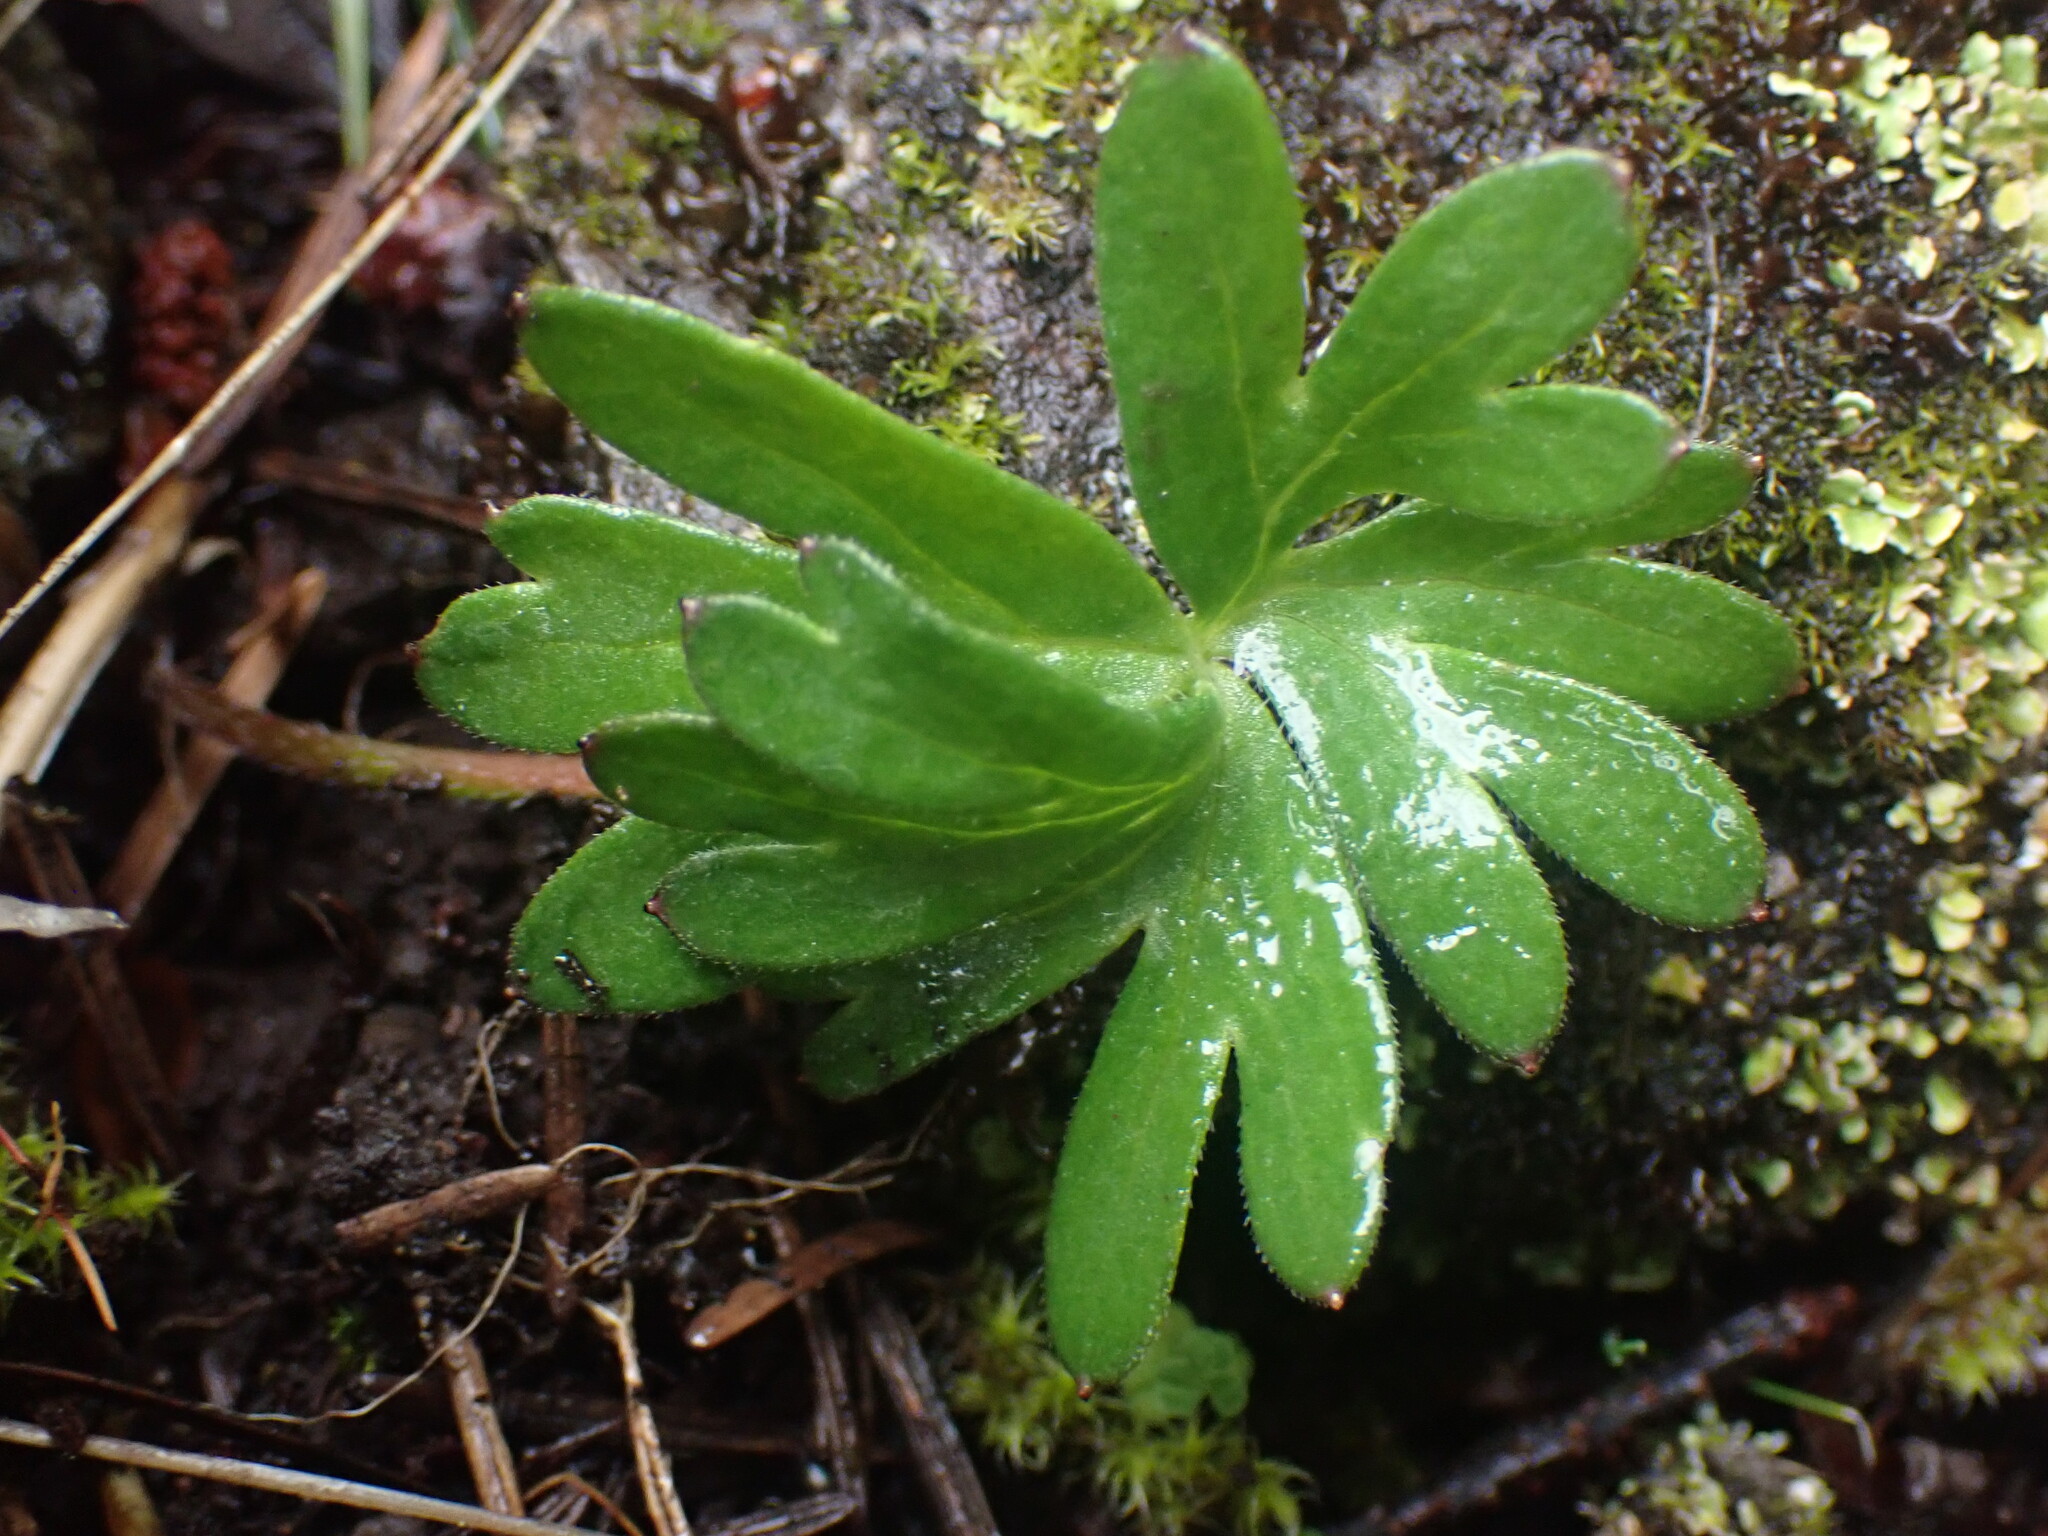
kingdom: Plantae
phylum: Tracheophyta
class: Magnoliopsida
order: Ranunculales
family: Ranunculaceae
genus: Delphinium
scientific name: Delphinium menziesii
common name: Menzies's larkspur
